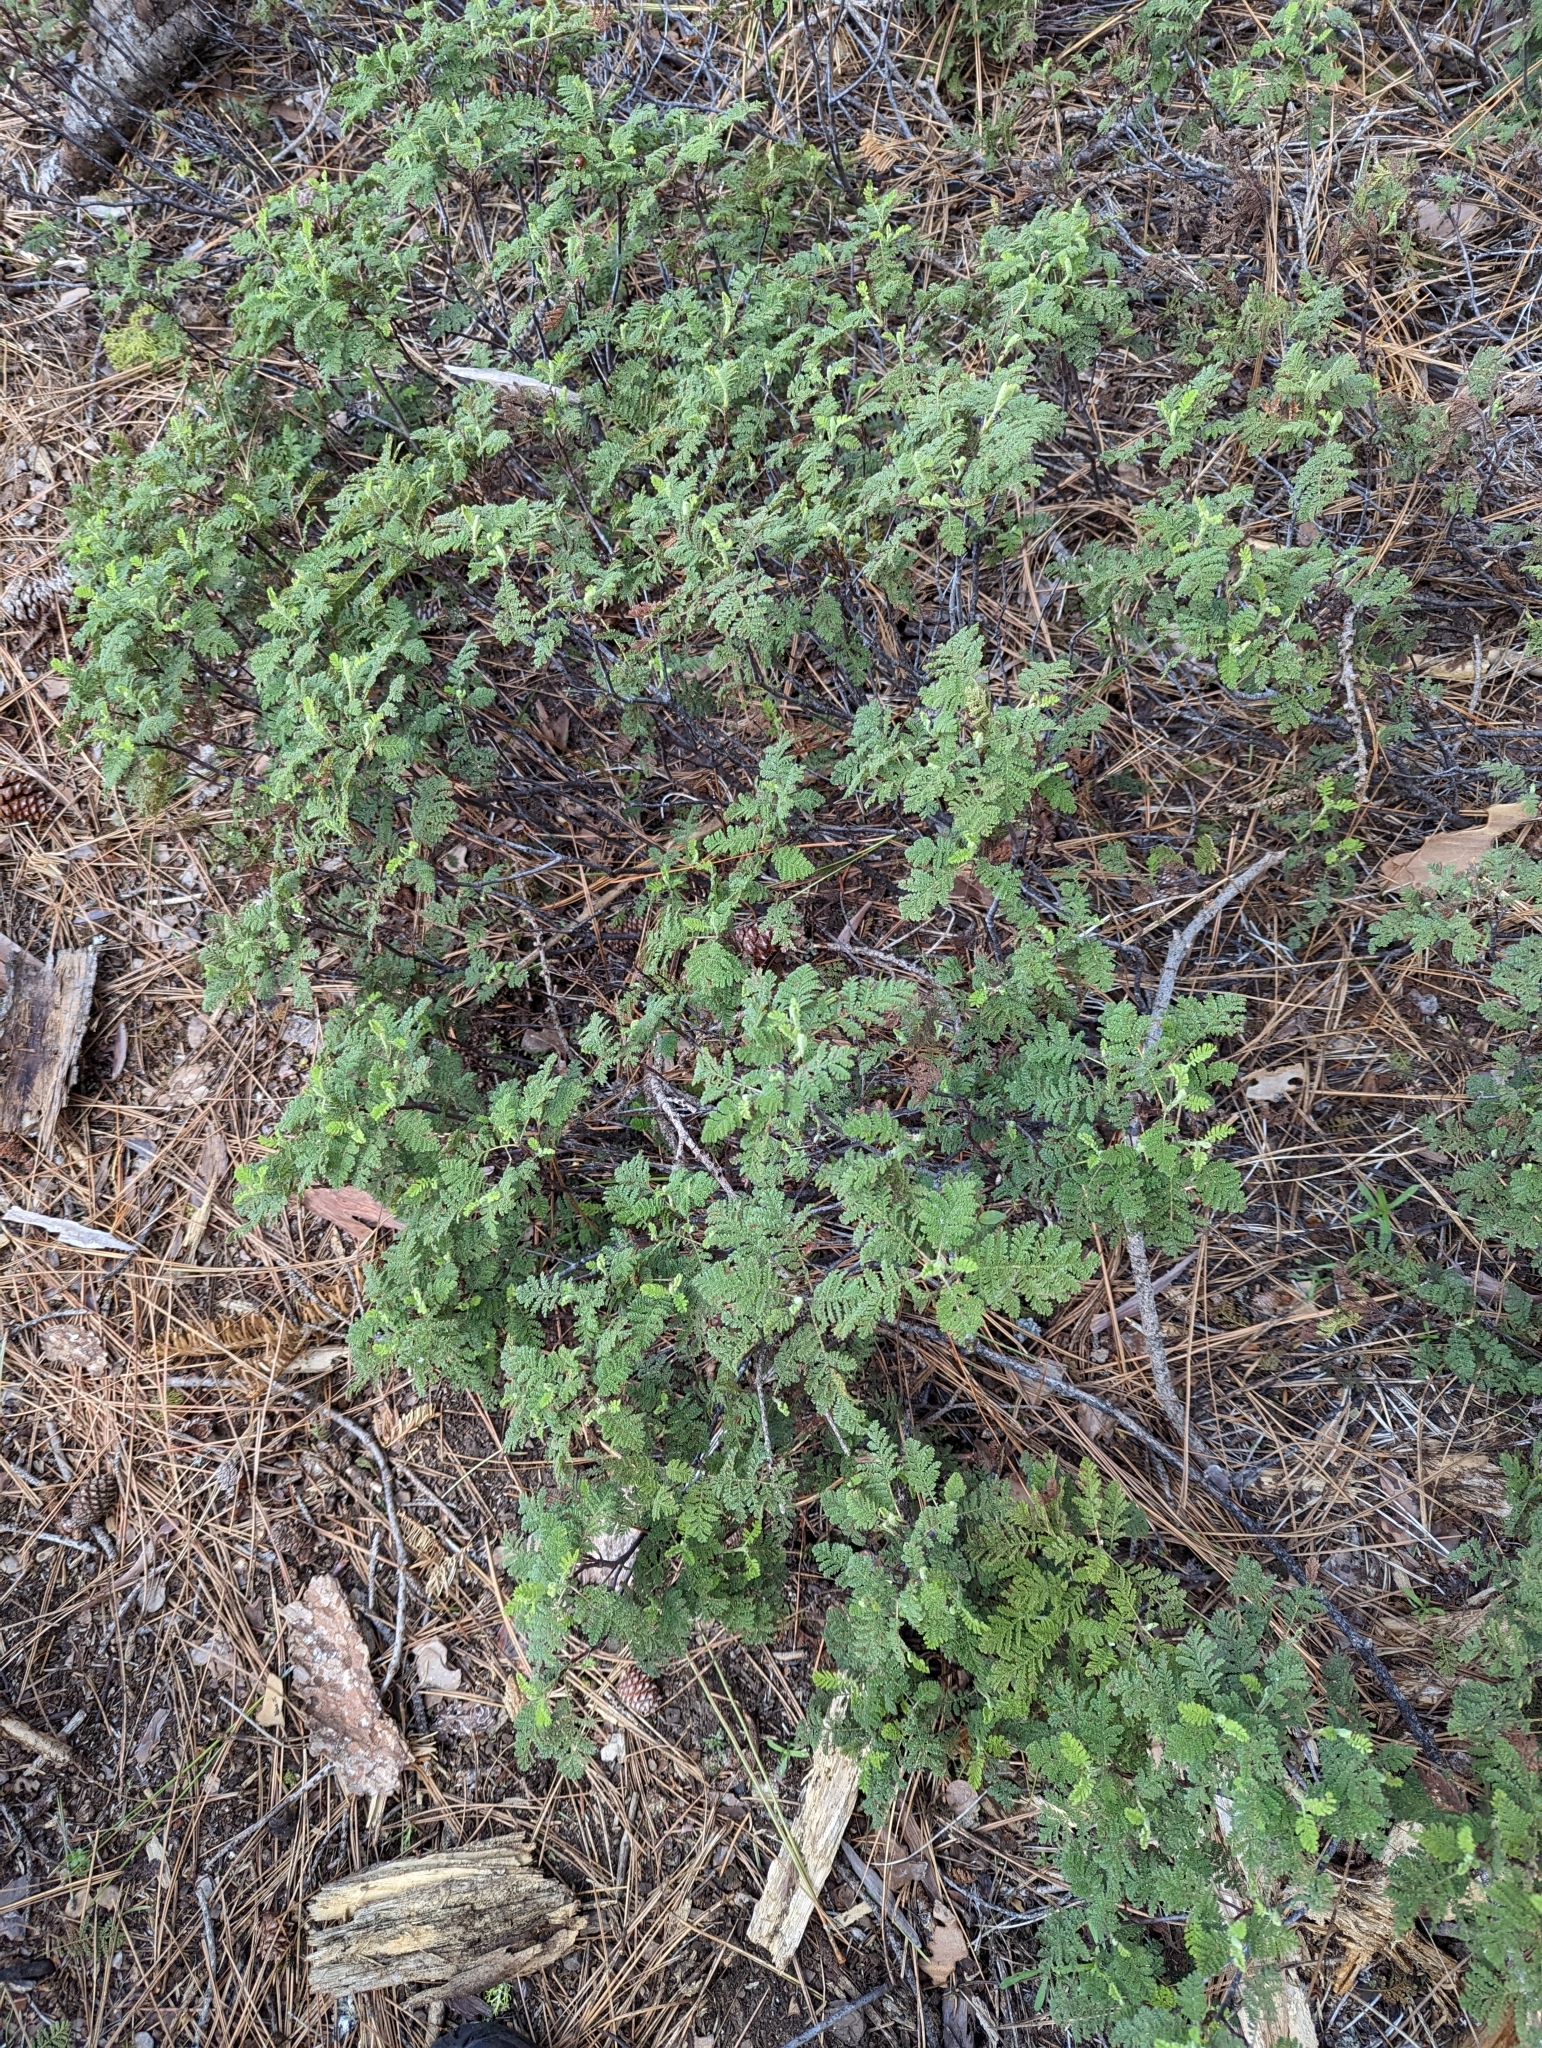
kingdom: Plantae
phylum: Tracheophyta
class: Magnoliopsida
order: Rosales
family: Rosaceae
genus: Chamaebatia
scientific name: Chamaebatia foliolosa
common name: Mountain misery
